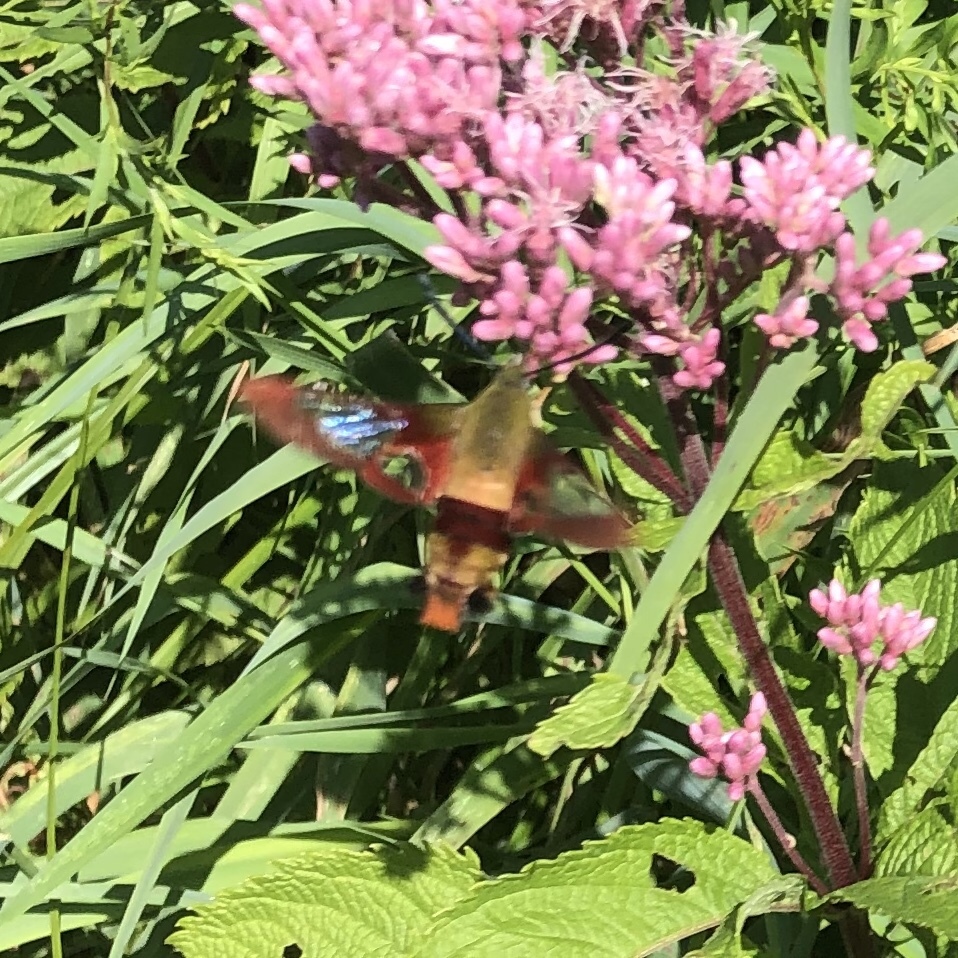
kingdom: Animalia
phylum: Arthropoda
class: Insecta
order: Lepidoptera
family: Sphingidae
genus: Hemaris
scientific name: Hemaris thysbe
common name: Common clear-wing
